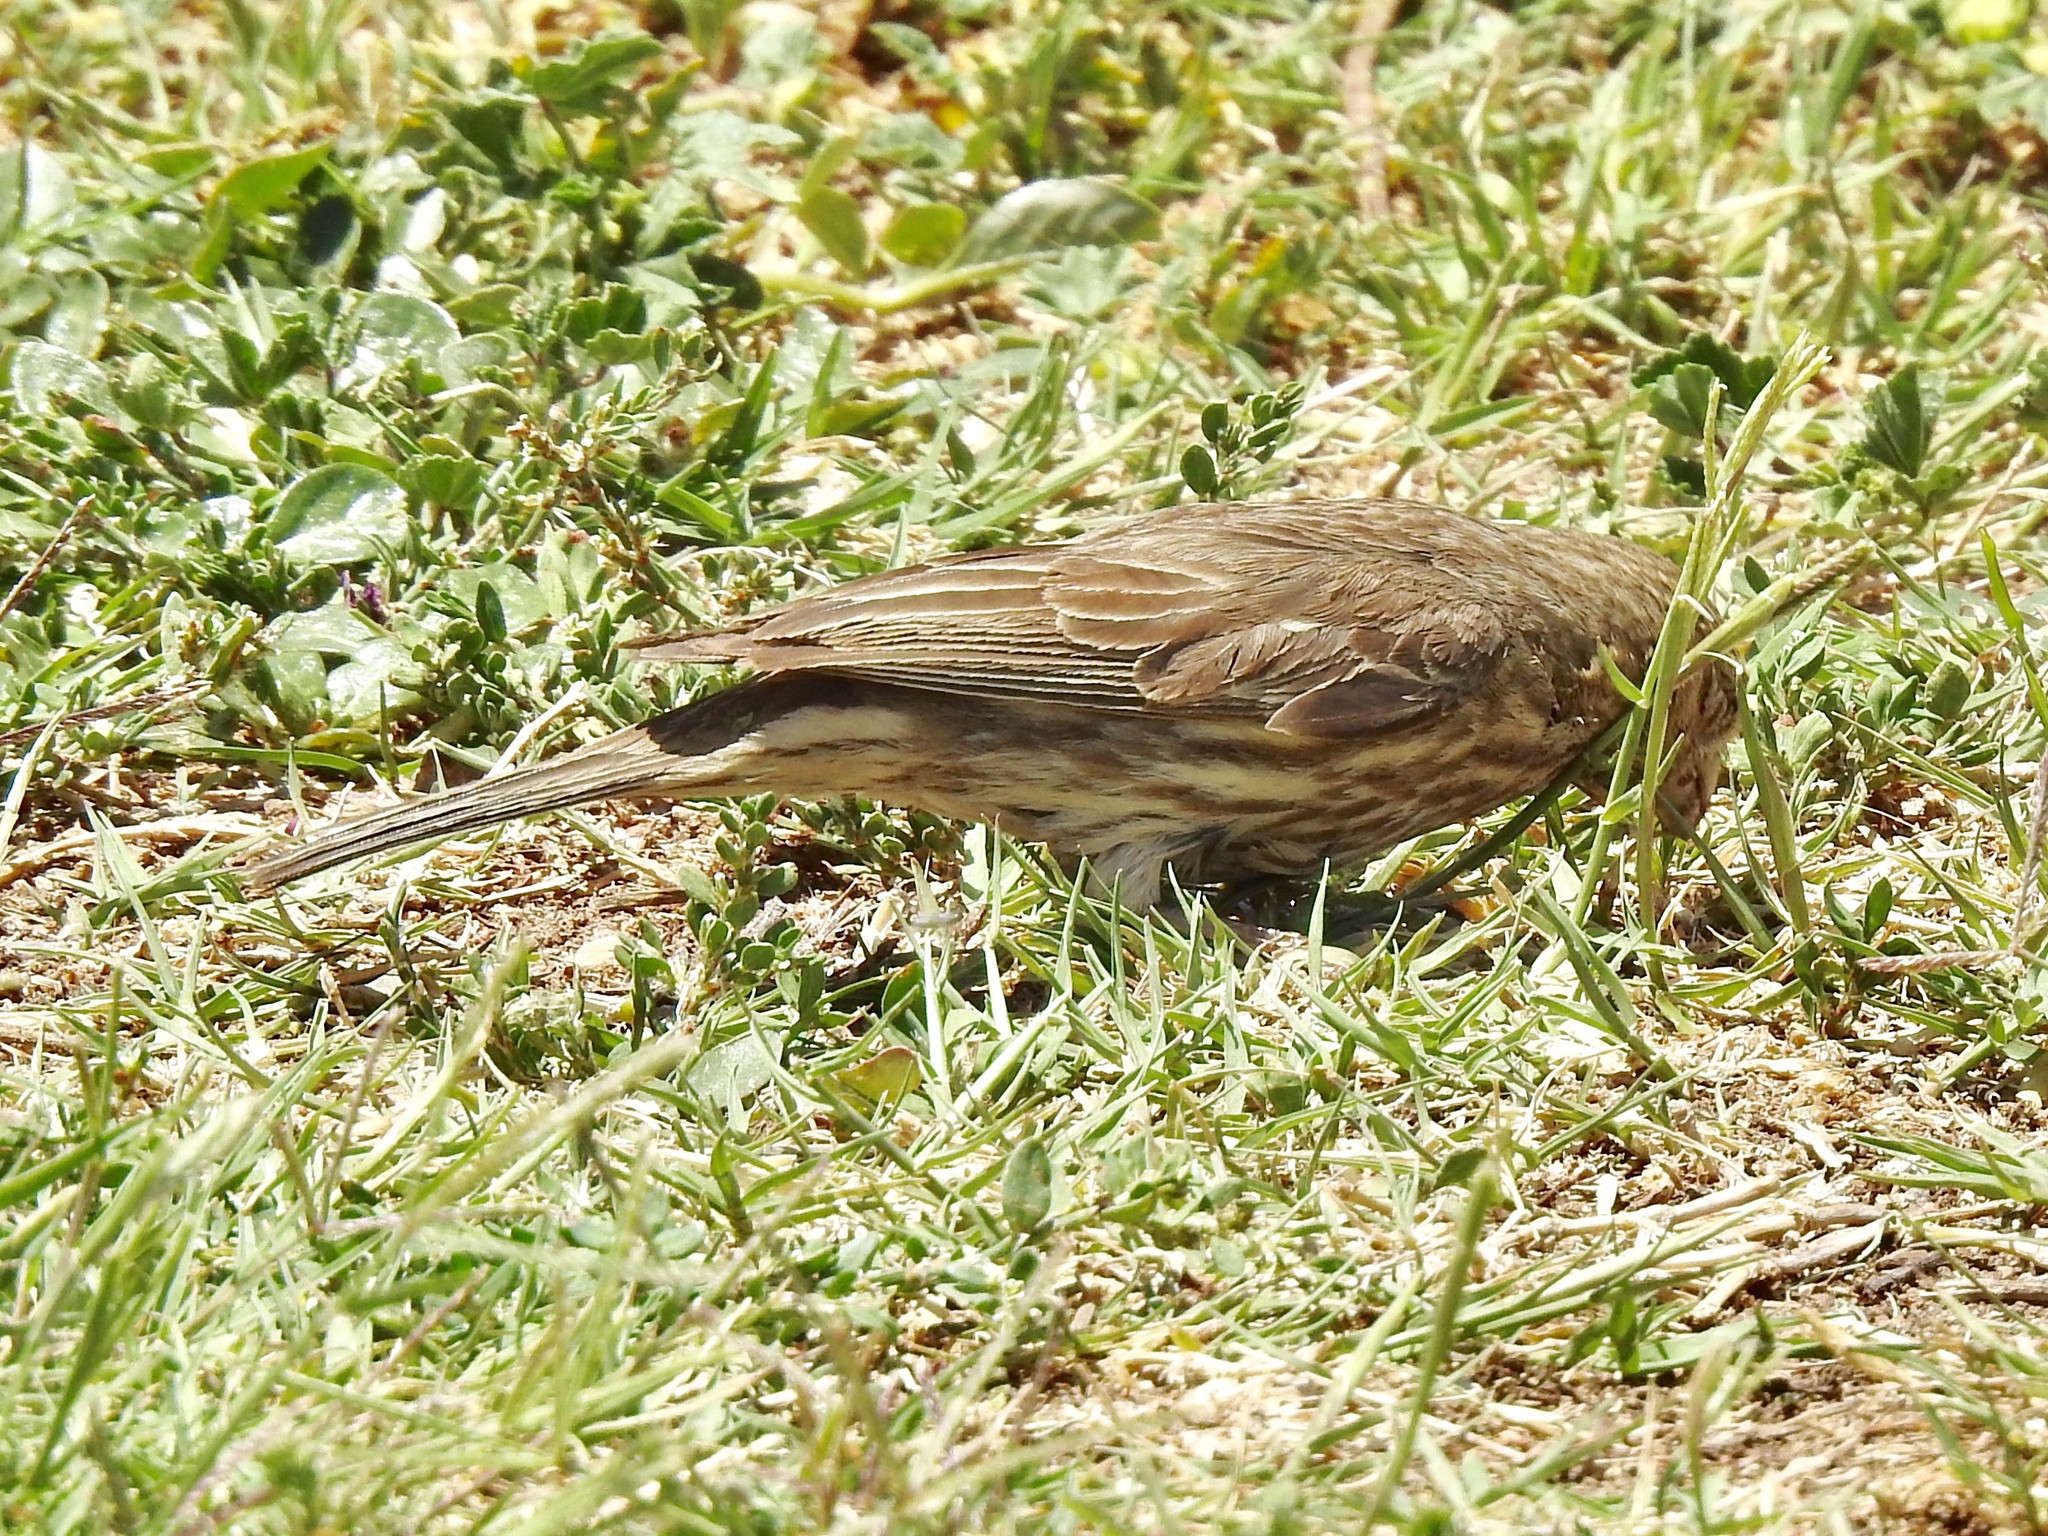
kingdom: Animalia
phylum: Chordata
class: Aves
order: Passeriformes
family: Fringillidae
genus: Haemorhous
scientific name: Haemorhous mexicanus
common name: House finch
